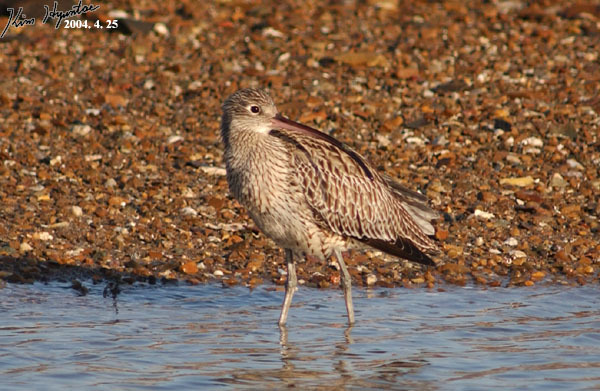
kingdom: Animalia
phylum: Chordata
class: Aves
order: Charadriiformes
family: Scolopacidae
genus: Numenius
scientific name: Numenius madagascariensis
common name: Far eastern curlew
